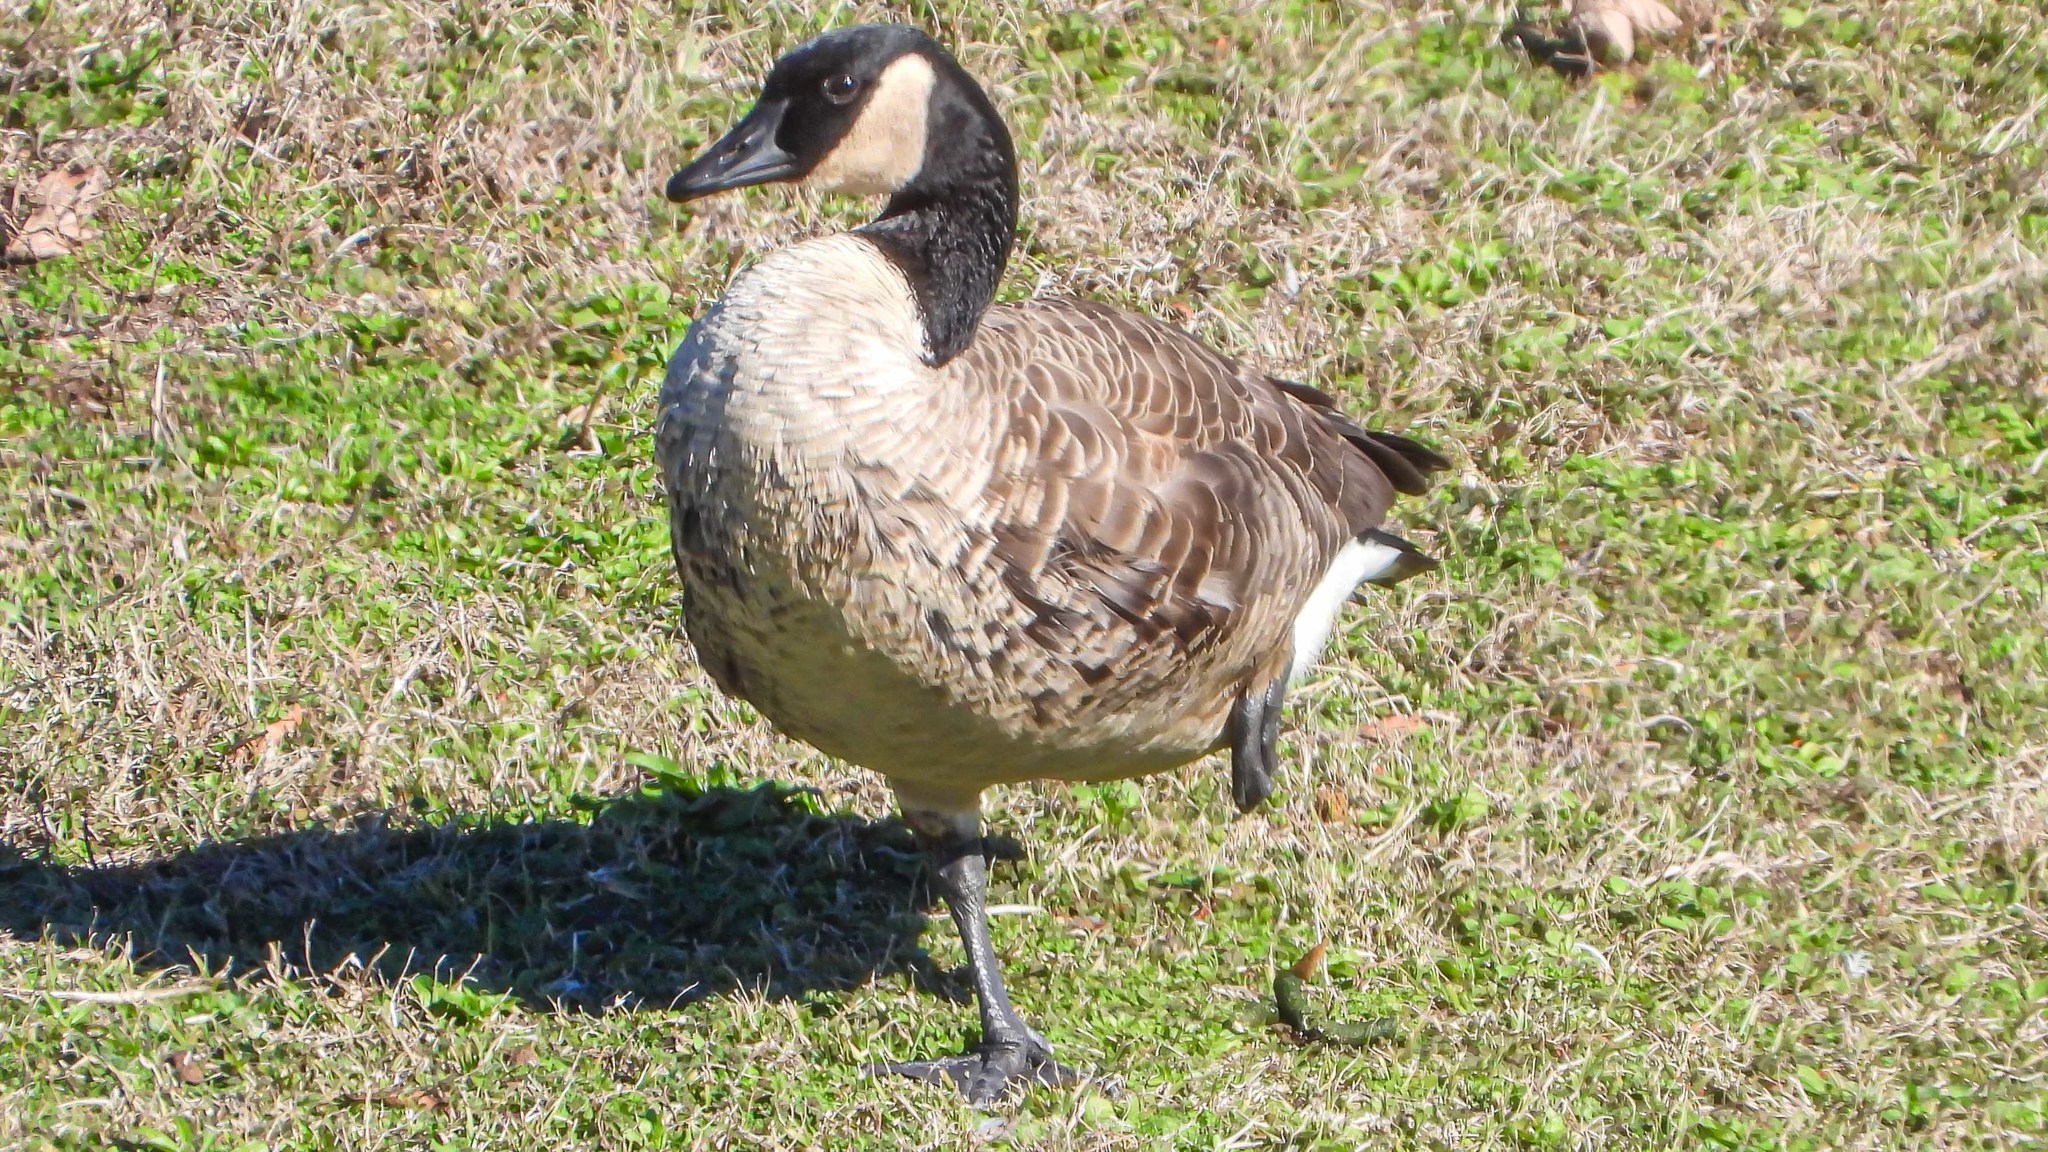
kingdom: Animalia
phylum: Chordata
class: Aves
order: Anseriformes
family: Anatidae
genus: Branta
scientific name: Branta canadensis
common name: Canada goose
